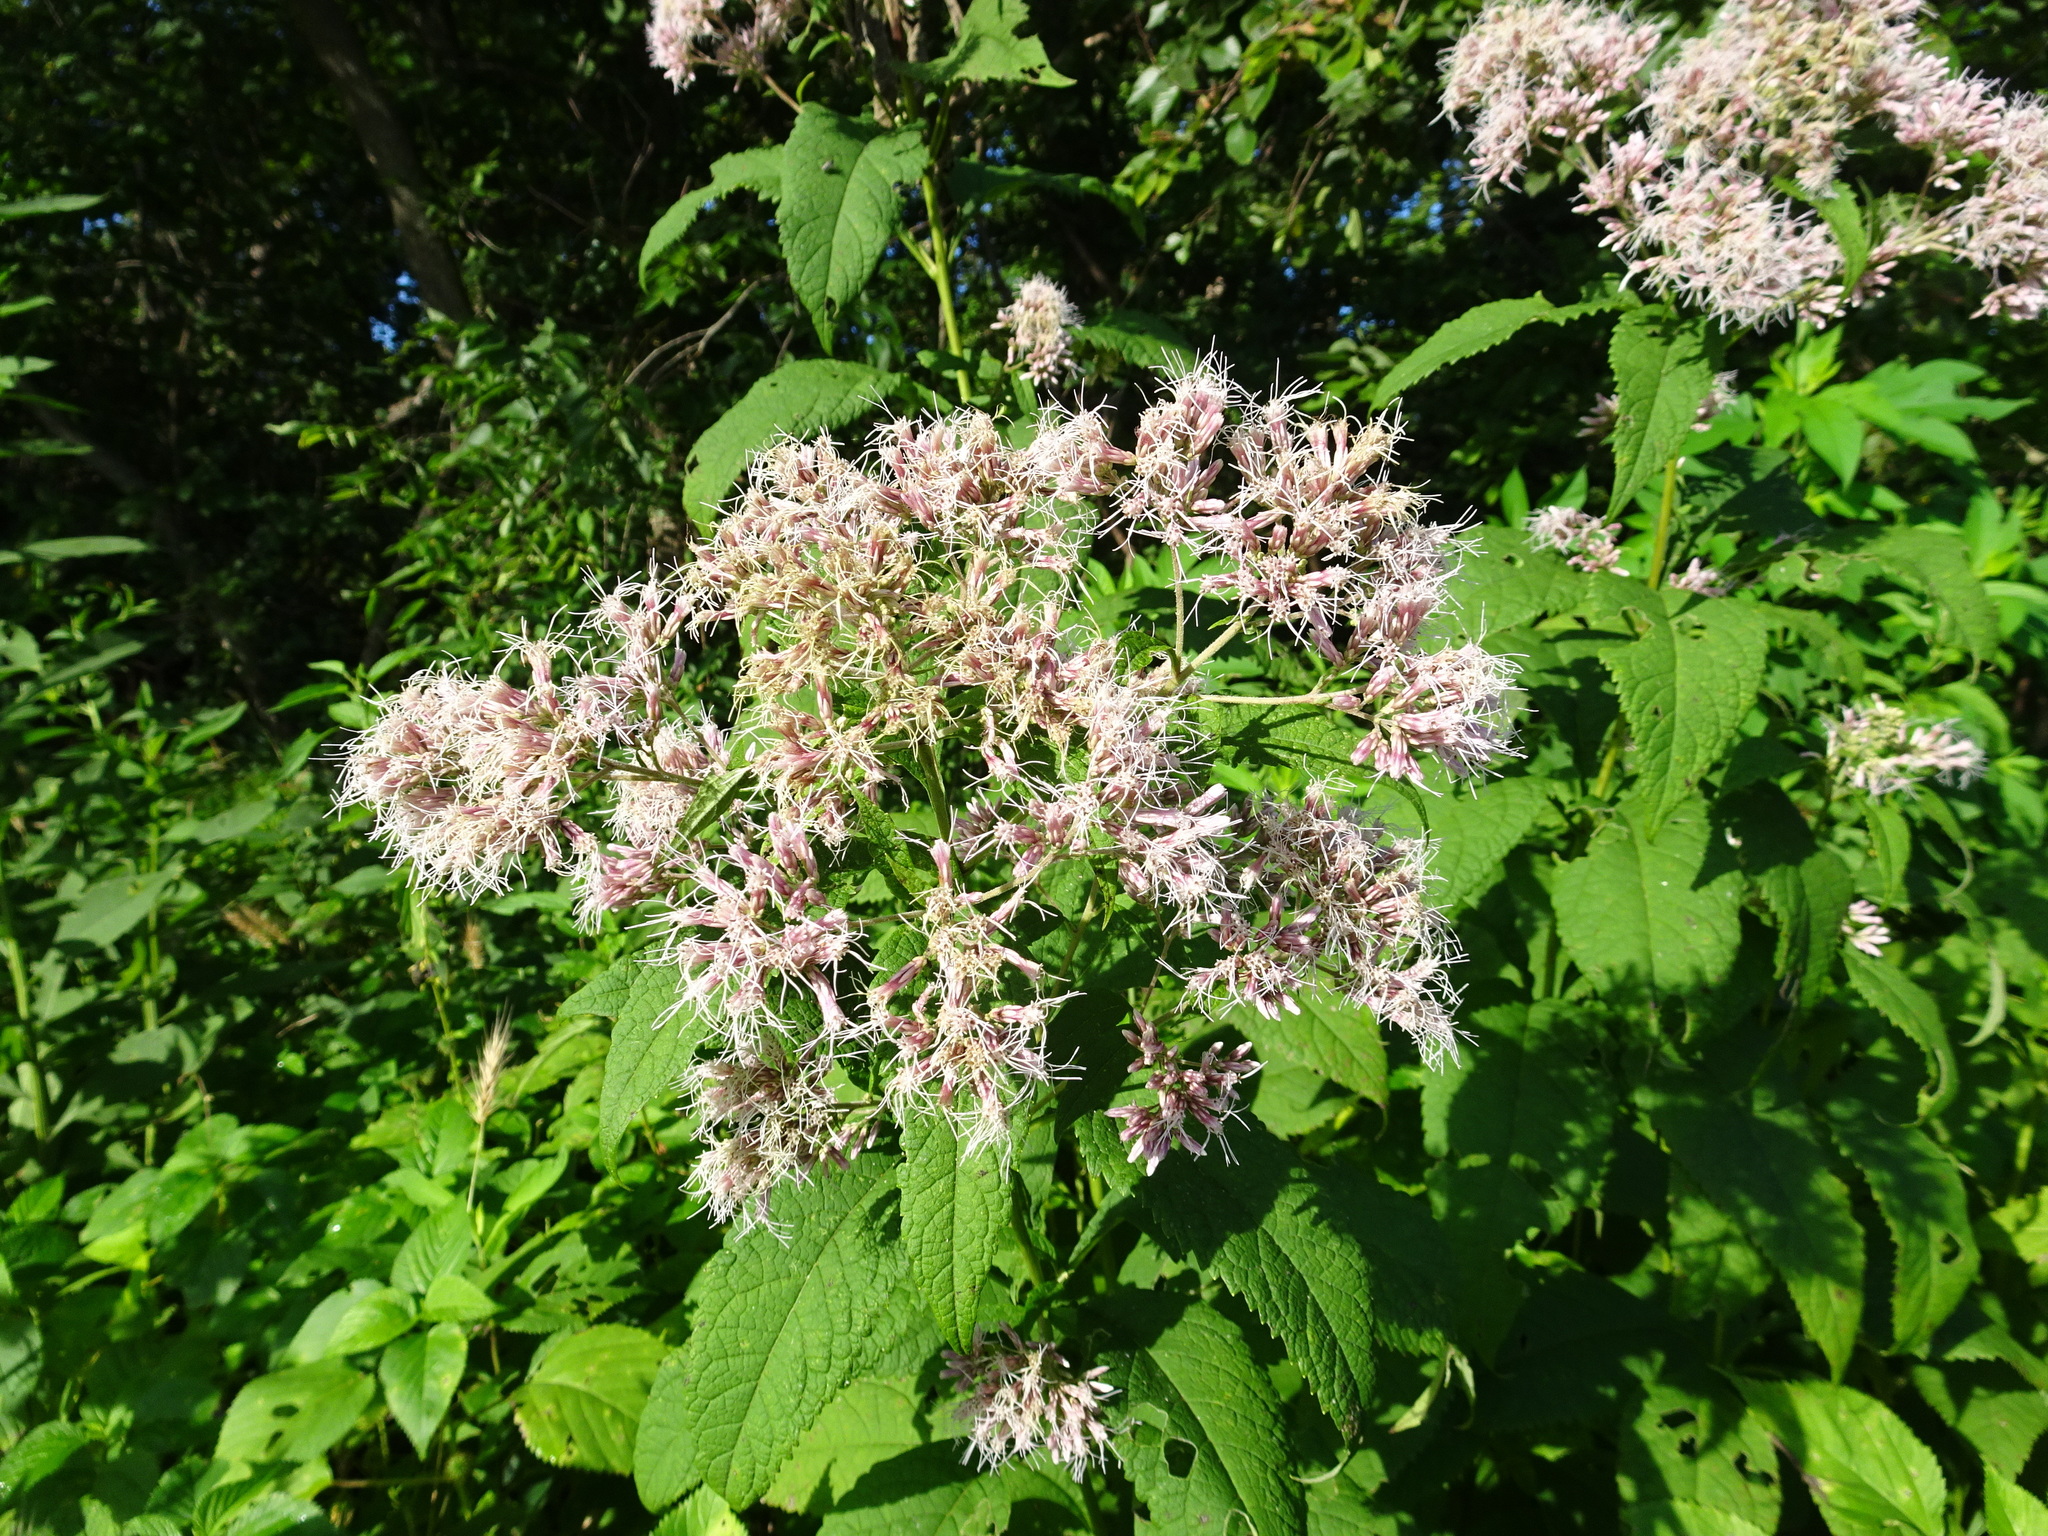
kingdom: Plantae
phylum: Tracheophyta
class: Magnoliopsida
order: Asterales
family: Asteraceae
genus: Eutrochium
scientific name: Eutrochium purpureum
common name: Gravelroot
